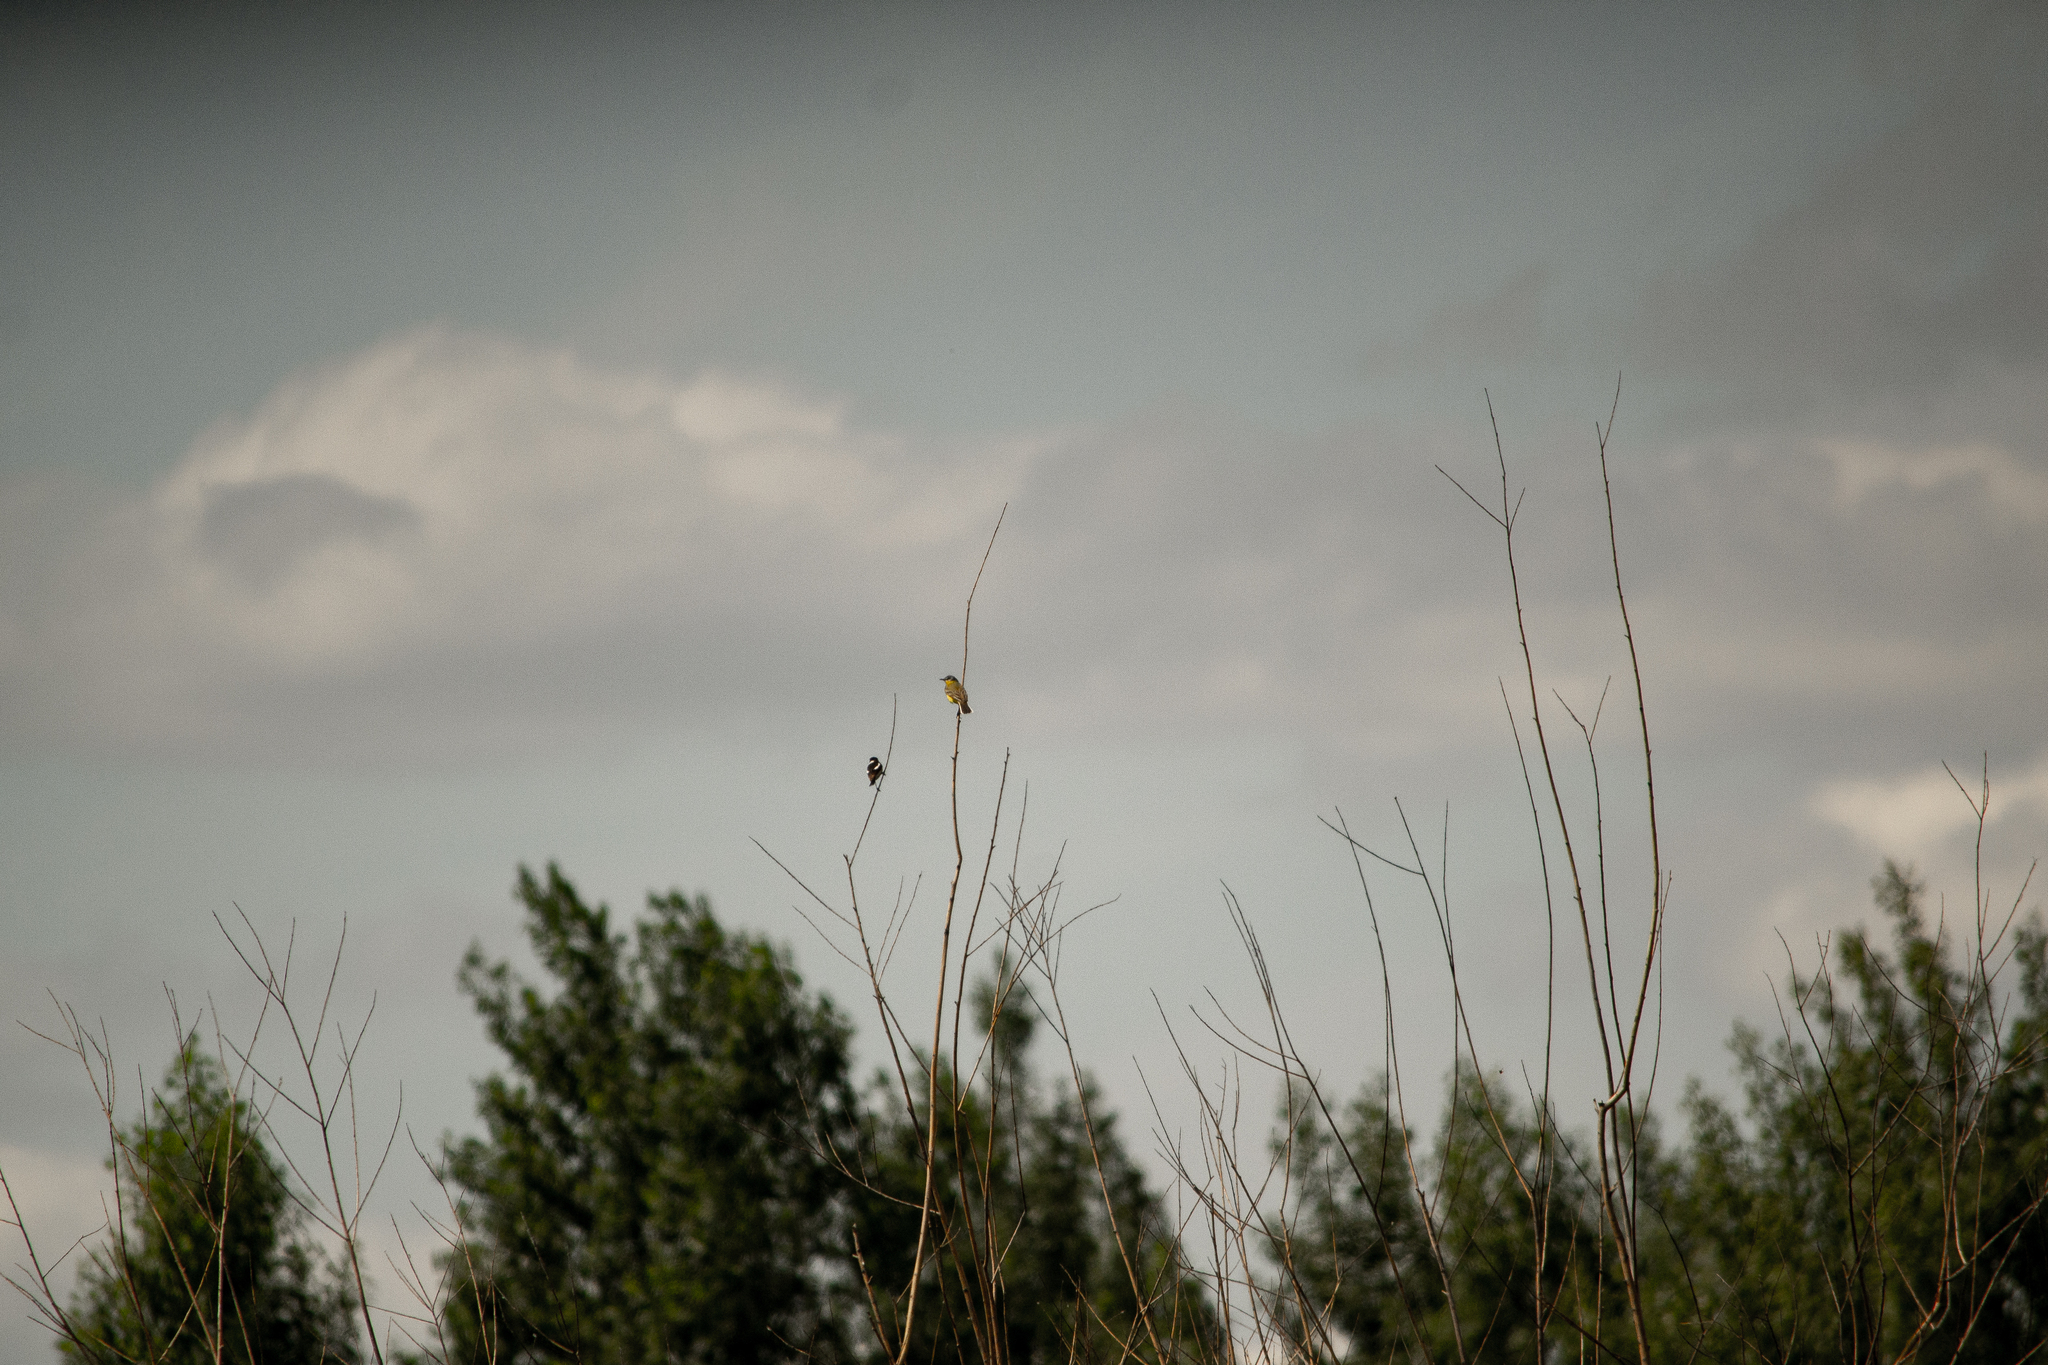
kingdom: Animalia
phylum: Chordata
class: Aves
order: Passeriformes
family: Muscicapidae
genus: Saxicola
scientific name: Saxicola maurus
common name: Siberian stonechat
